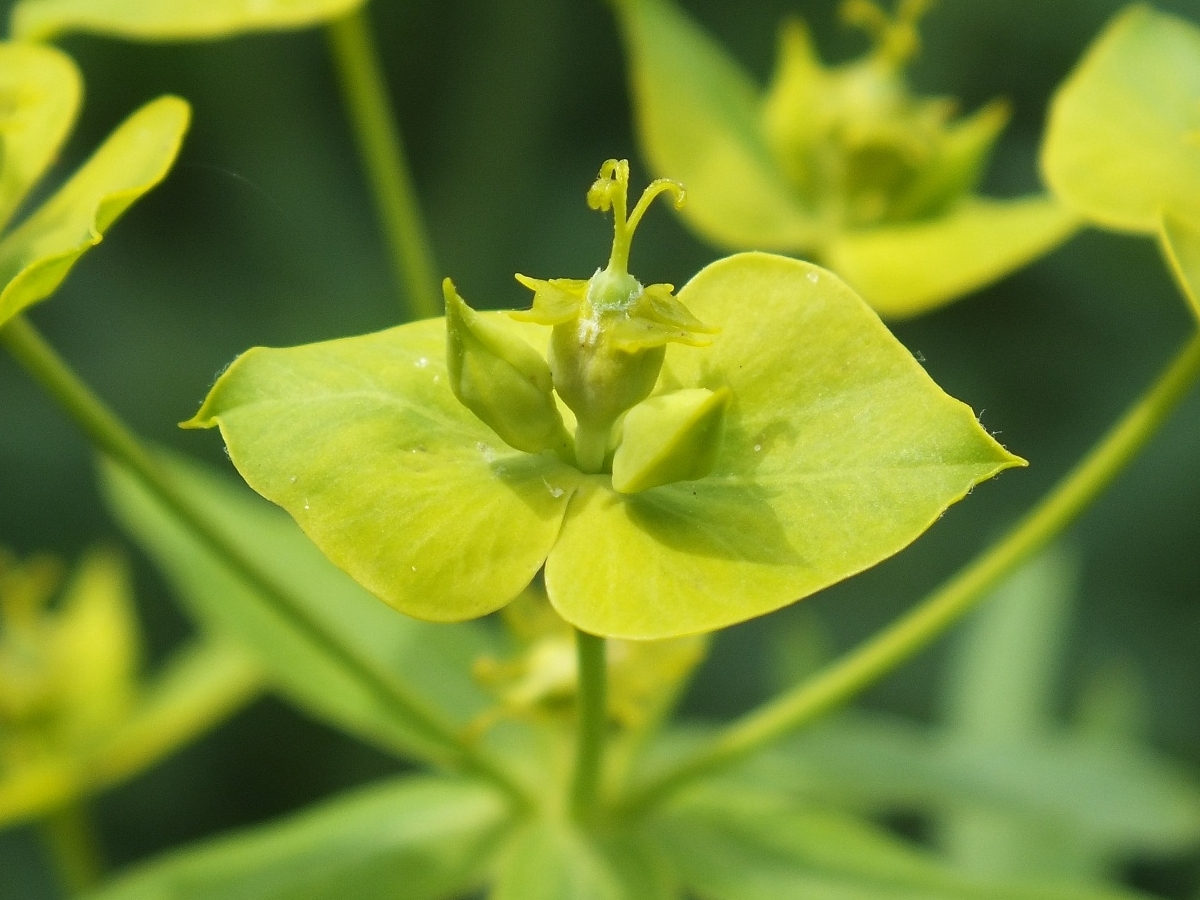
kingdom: Plantae
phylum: Tracheophyta
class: Magnoliopsida
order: Malpighiales
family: Euphorbiaceae
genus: Euphorbia
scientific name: Euphorbia virgata
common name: Leafy spurge
